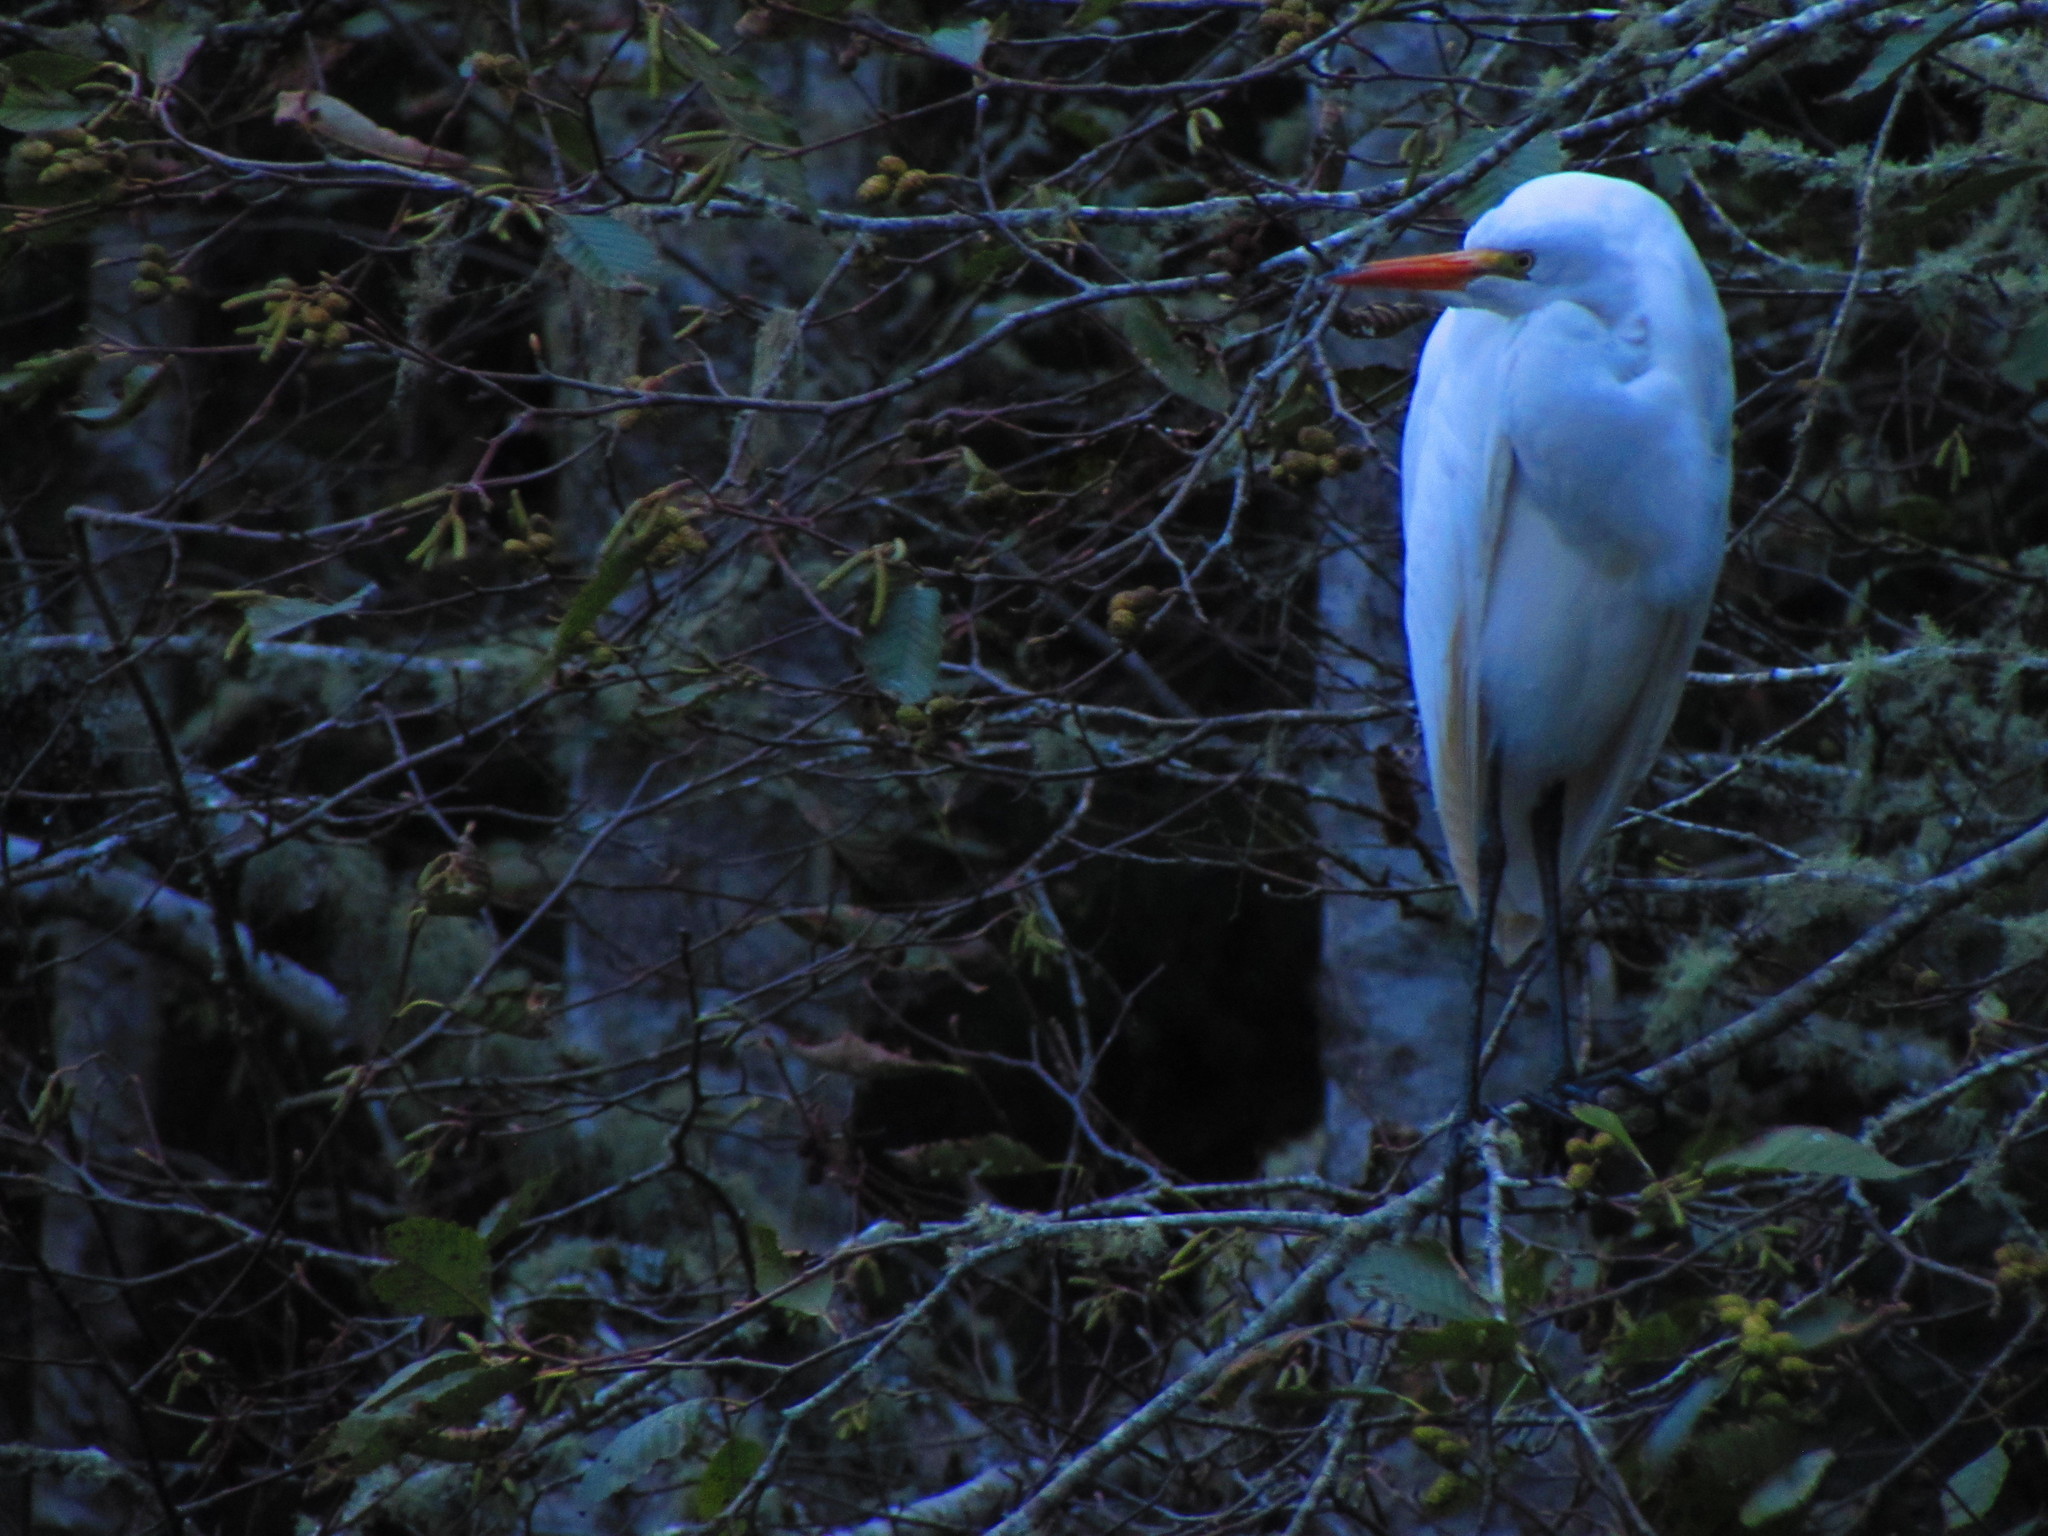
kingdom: Animalia
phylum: Chordata
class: Aves
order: Pelecaniformes
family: Ardeidae
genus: Ardea
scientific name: Ardea alba
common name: Great egret
